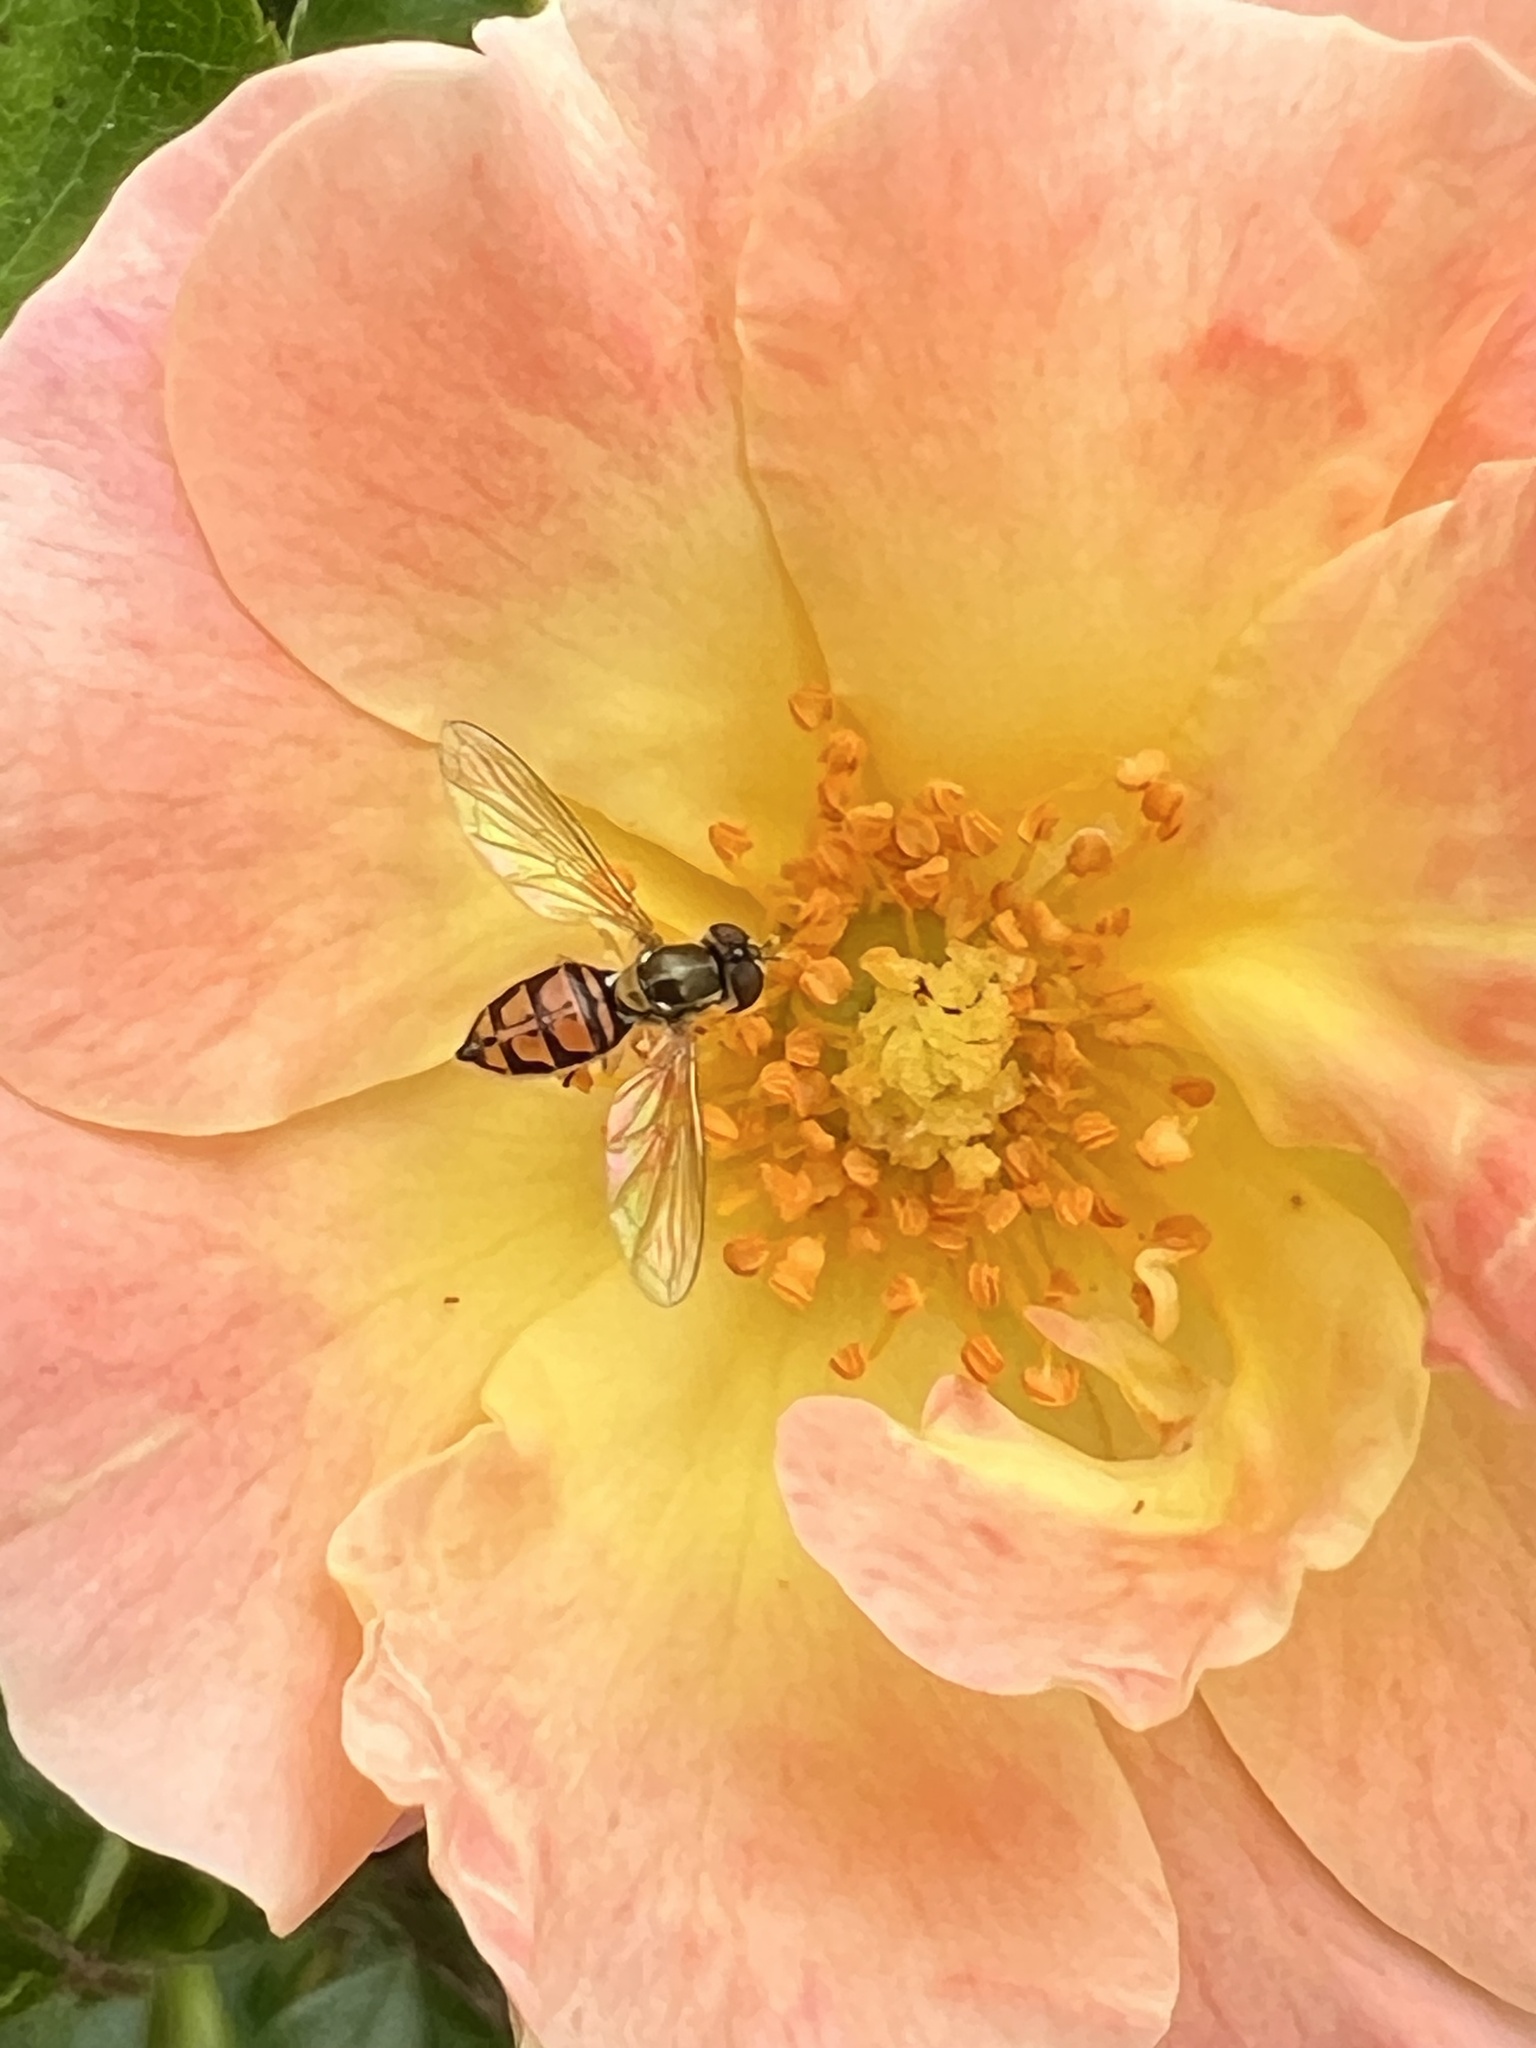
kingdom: Animalia
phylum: Arthropoda
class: Insecta
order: Diptera
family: Syrphidae
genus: Toxomerus
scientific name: Toxomerus marginatus
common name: Syrphid fly
